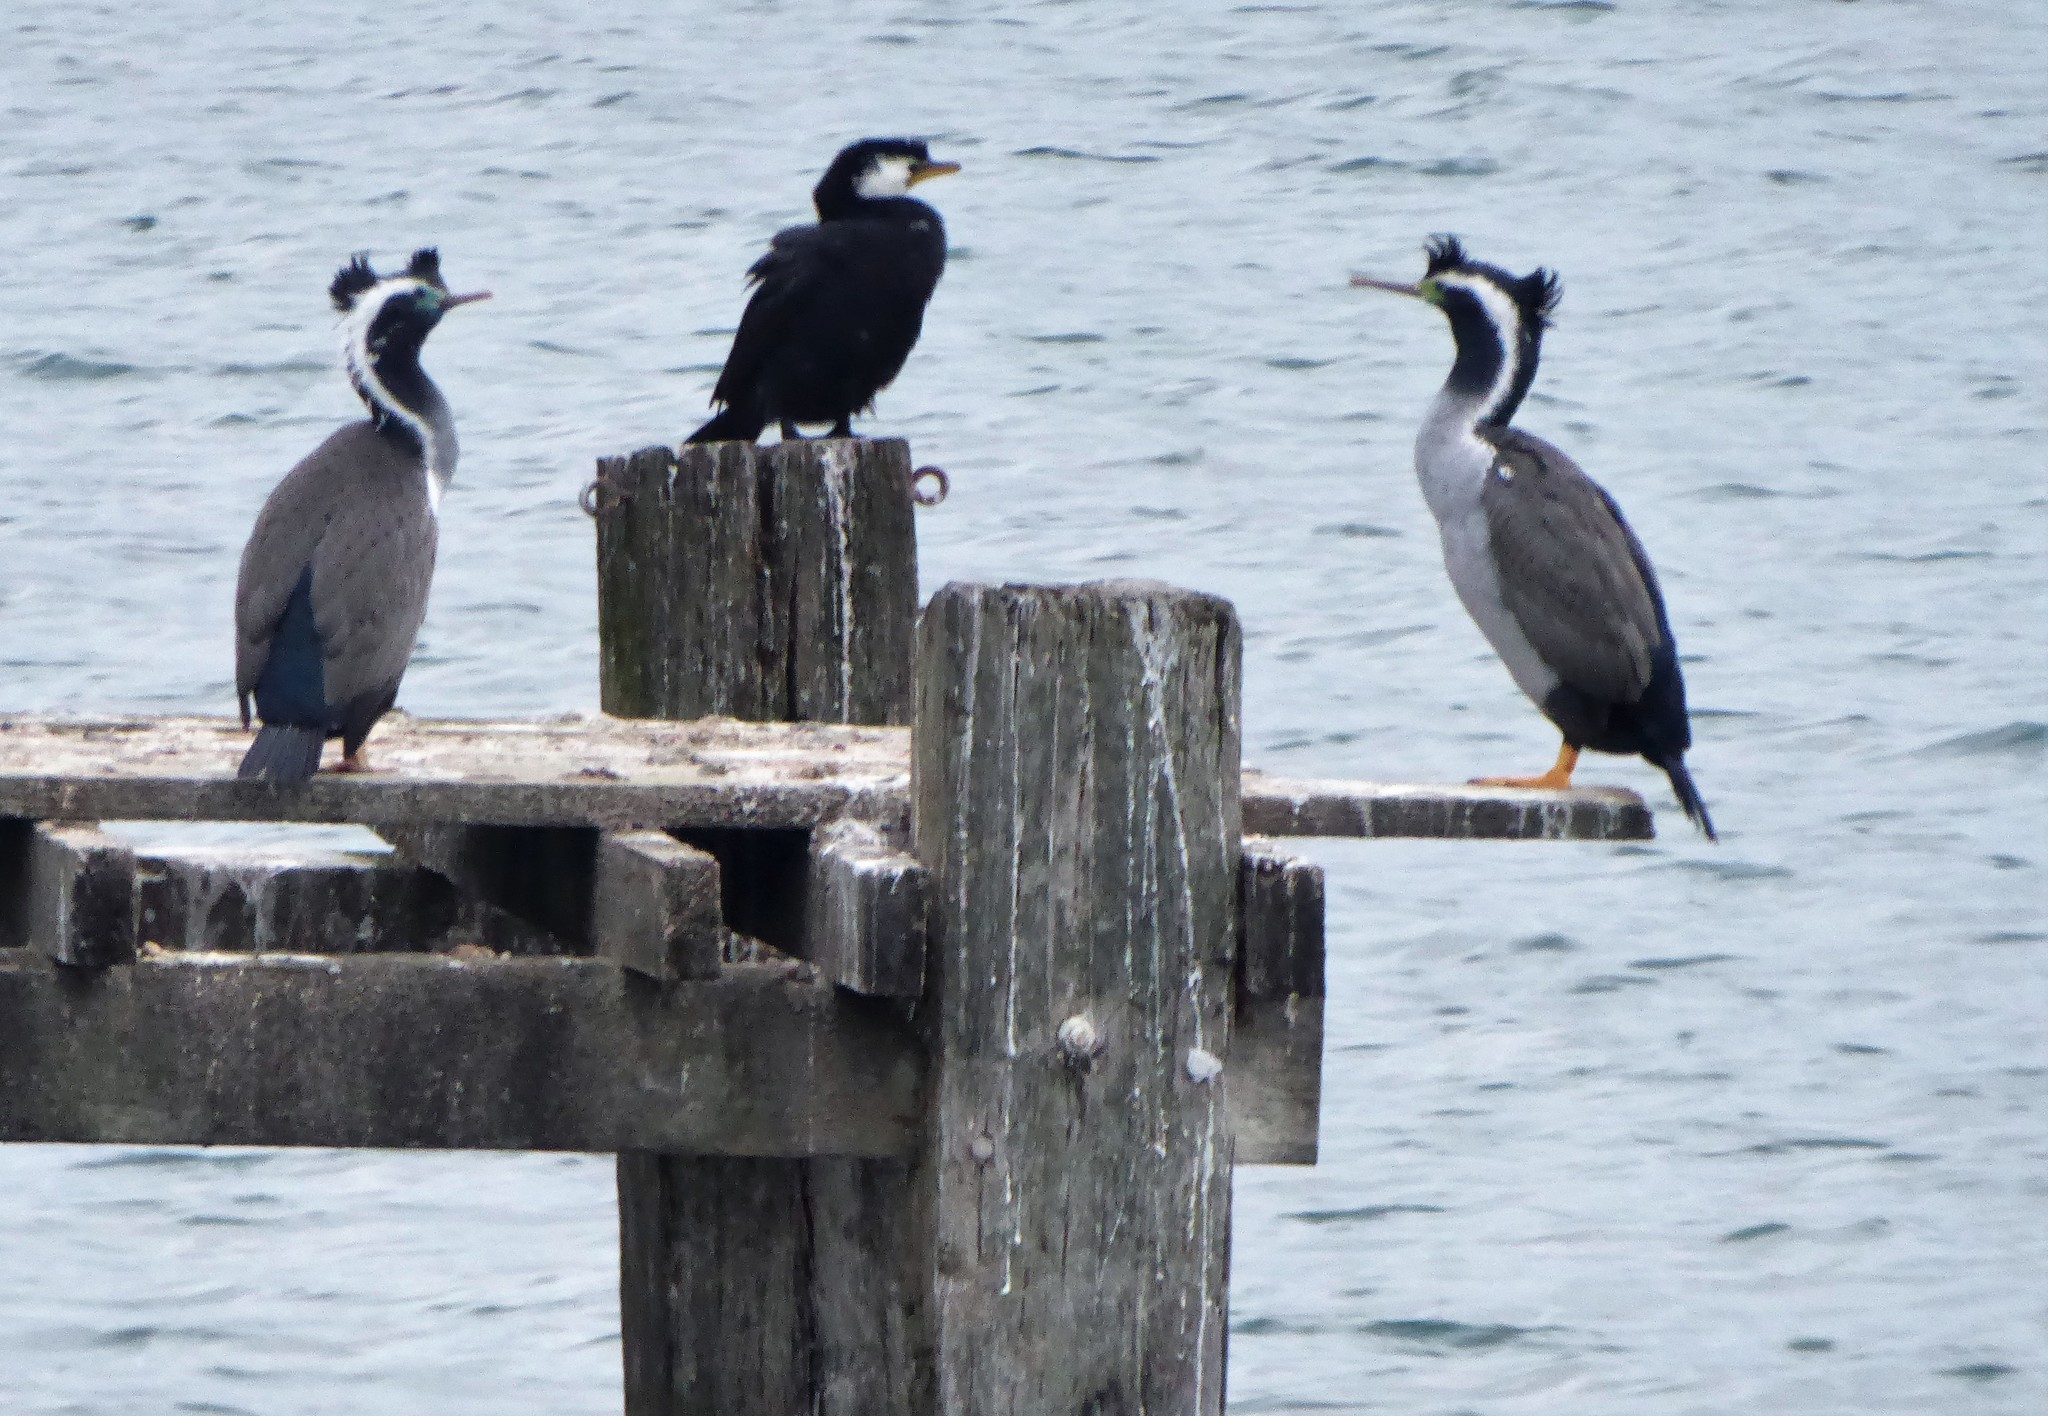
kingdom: Animalia
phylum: Chordata
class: Aves
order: Suliformes
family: Phalacrocoracidae
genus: Phalacrocorax
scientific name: Phalacrocorax punctatus
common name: Spotted shag
